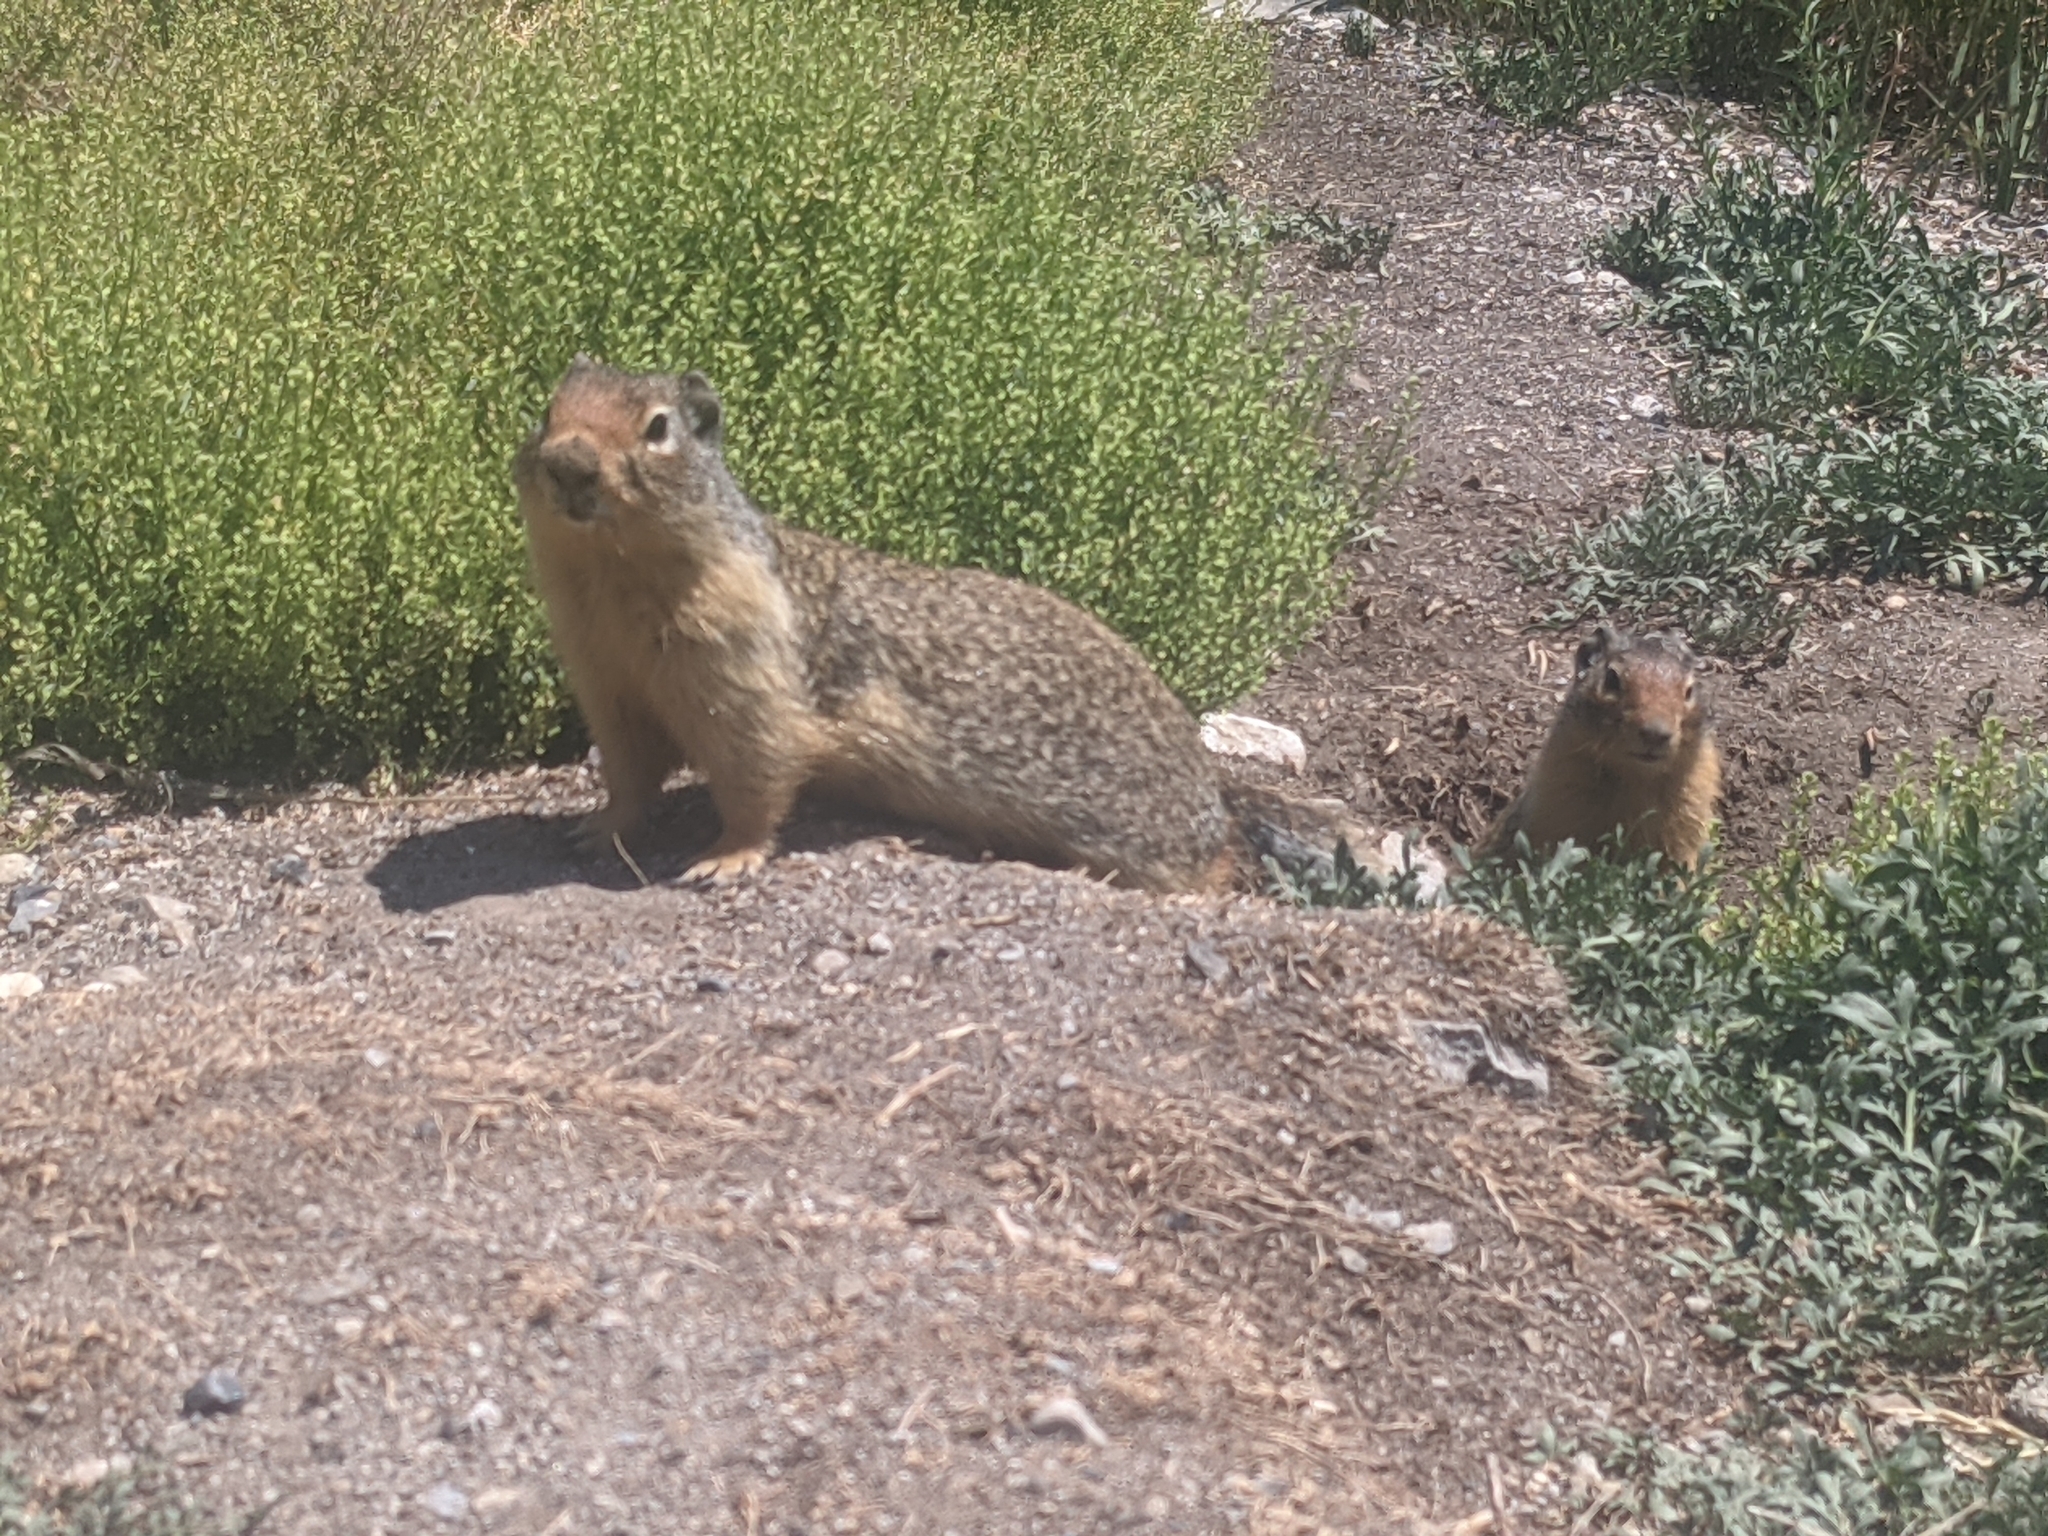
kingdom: Animalia
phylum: Chordata
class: Mammalia
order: Rodentia
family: Sciuridae
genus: Urocitellus
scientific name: Urocitellus columbianus
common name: Columbian ground squirrel
